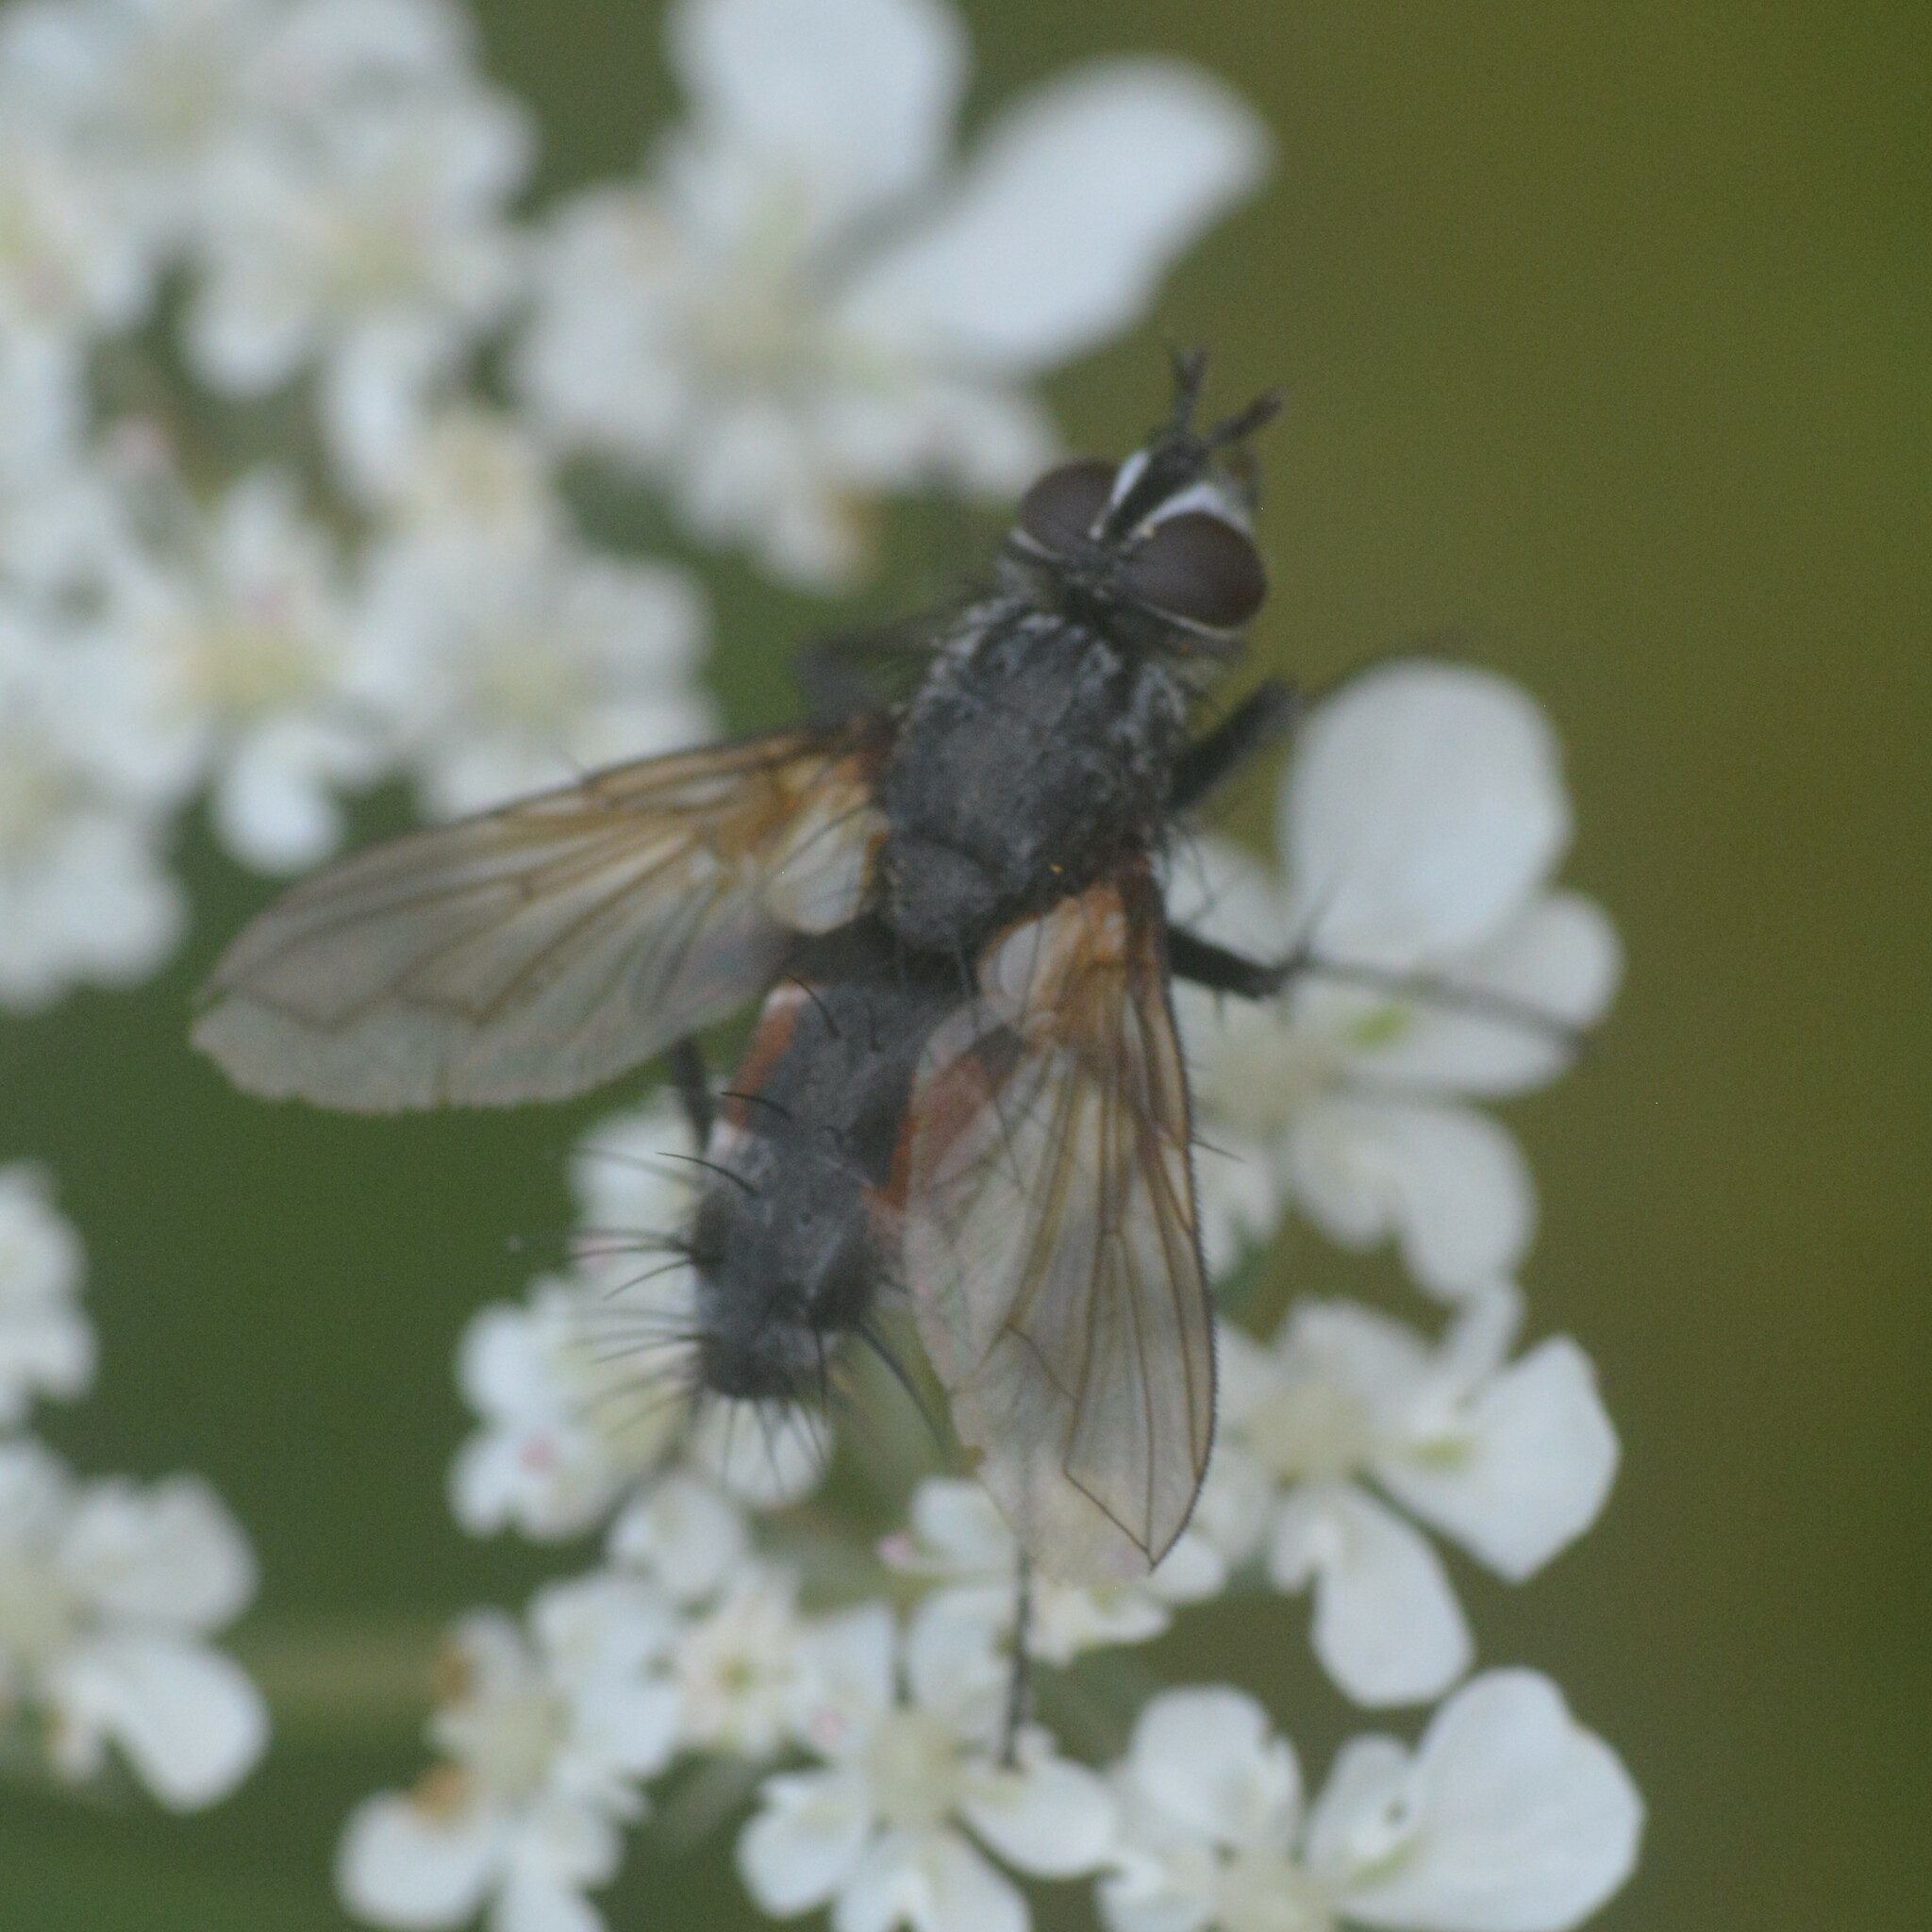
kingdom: Animalia
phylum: Arthropoda
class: Insecta
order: Diptera
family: Tachinidae
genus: Eriothrix
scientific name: Eriothrix rufomaculatus
